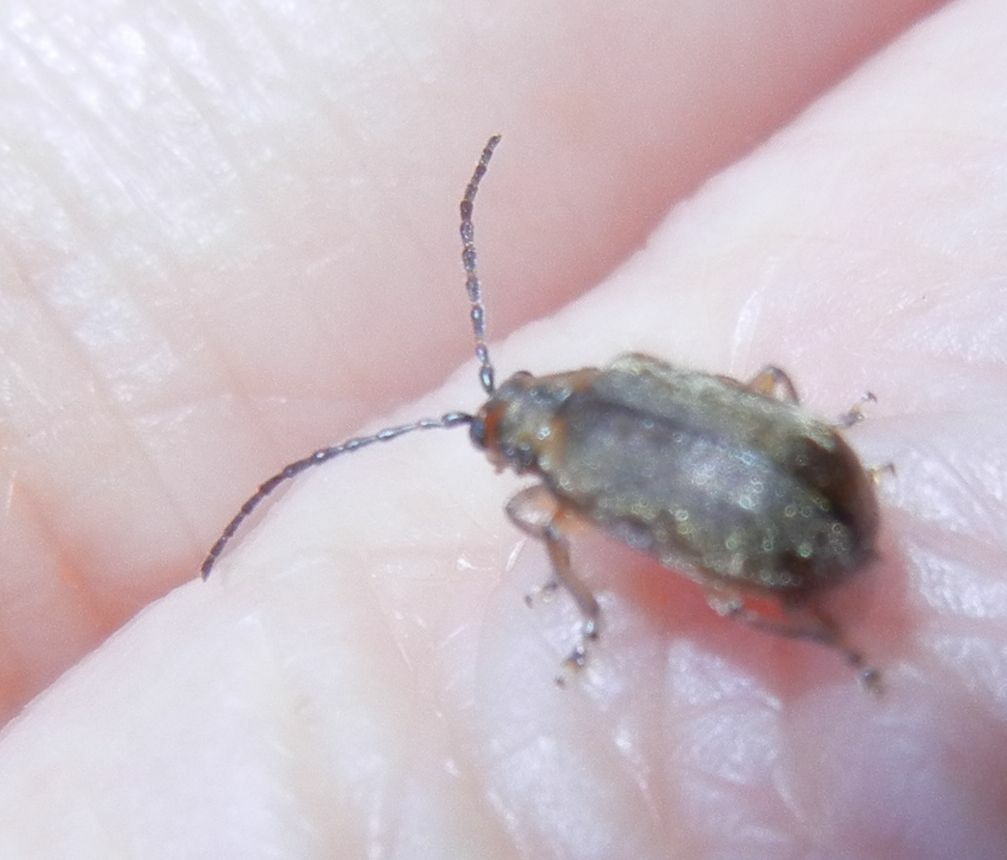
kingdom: Animalia
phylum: Arthropoda
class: Insecta
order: Coleoptera
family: Chrysomelidae
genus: Pyrrhalta
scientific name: Pyrrhalta viburni
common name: Guelder-rose leaf beetle
